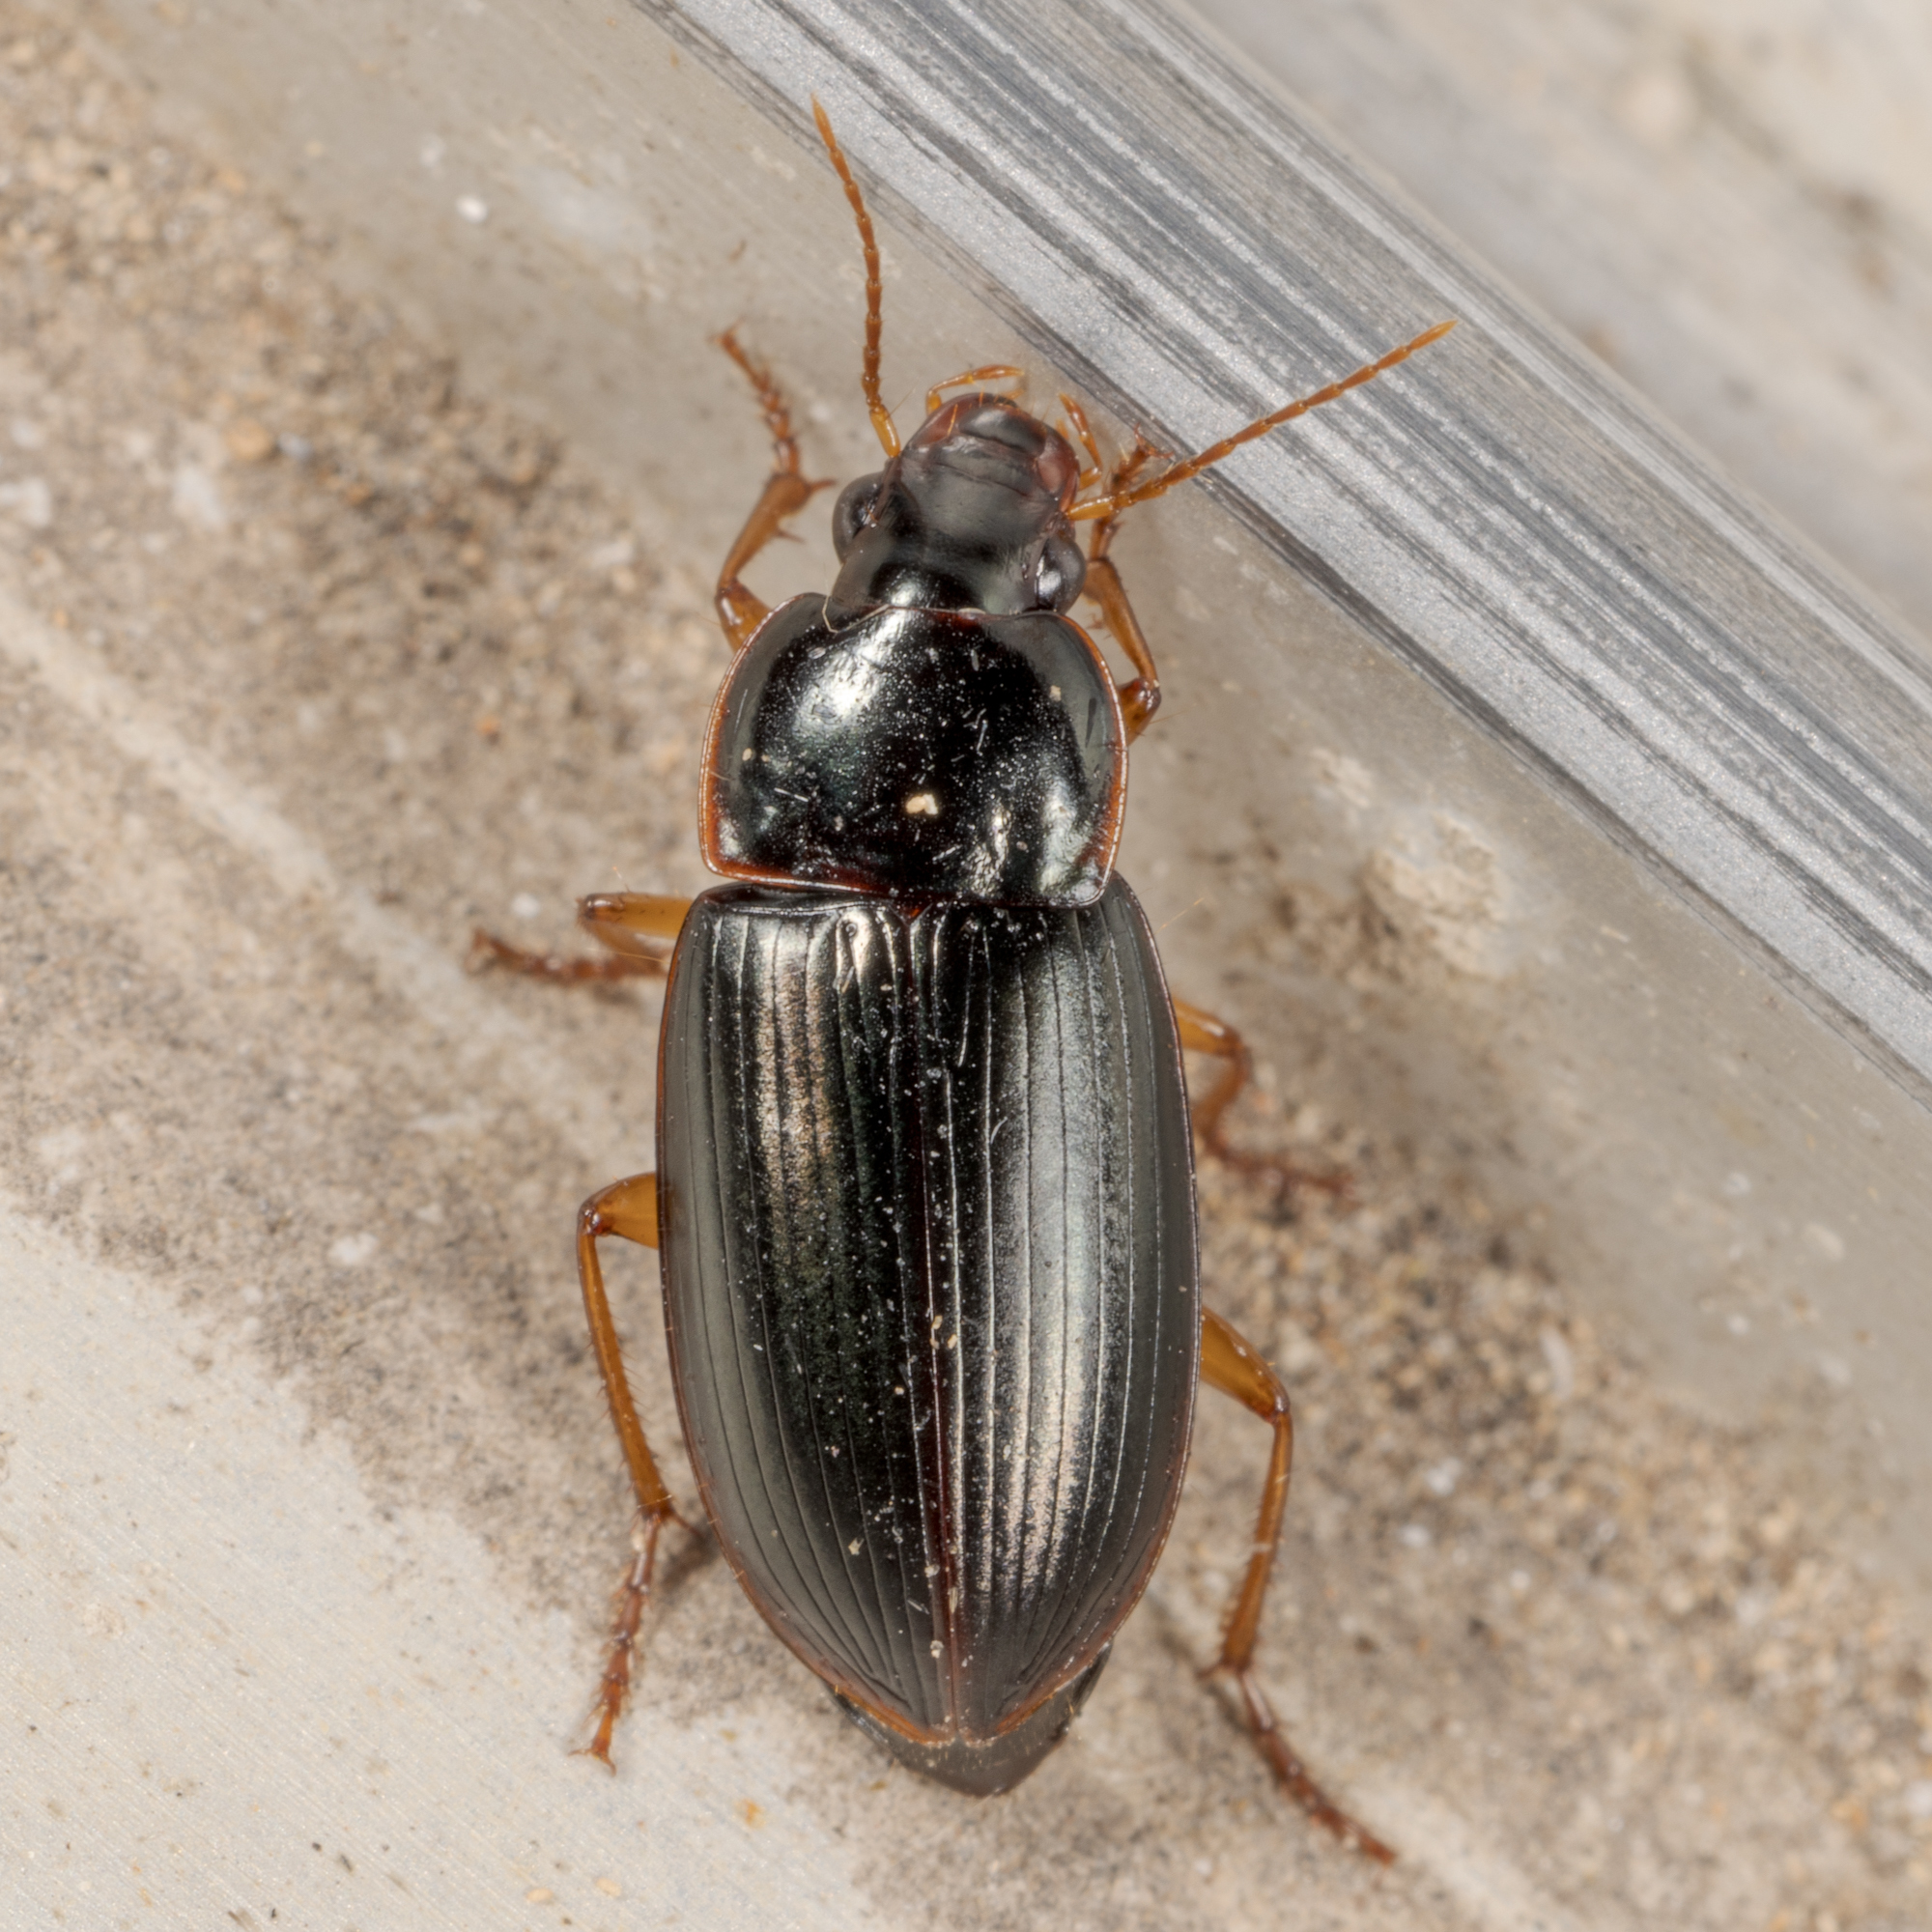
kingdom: Animalia
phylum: Arthropoda
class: Insecta
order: Coleoptera
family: Carabidae
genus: Notiobia
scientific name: Notiobia terminata
